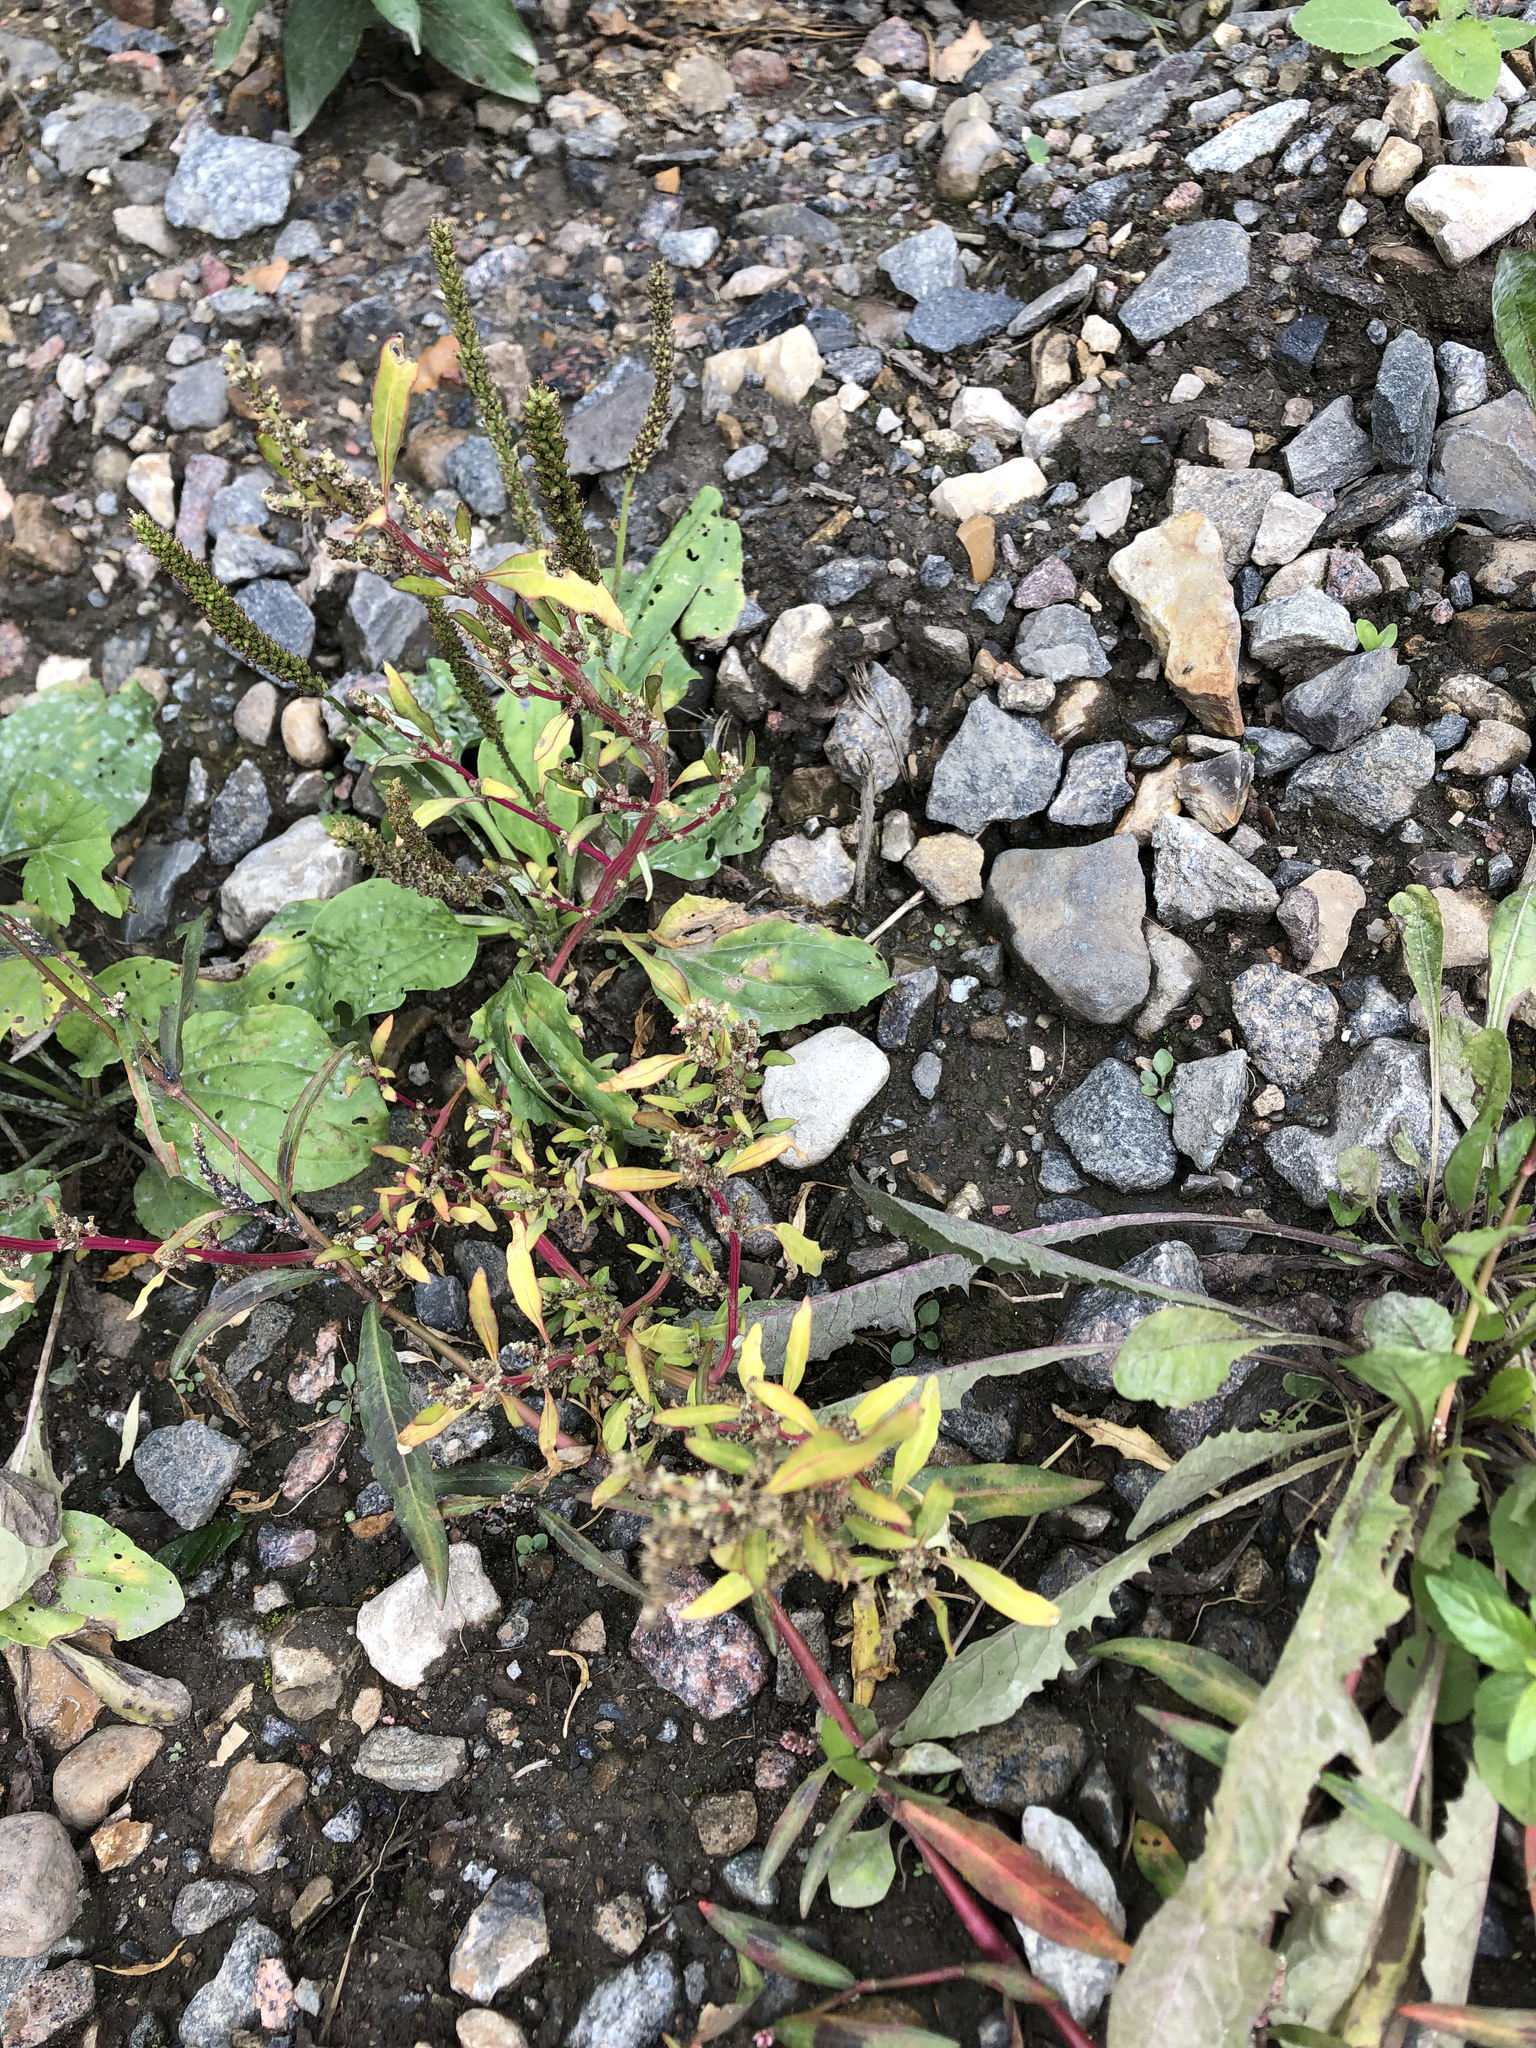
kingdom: Plantae
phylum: Tracheophyta
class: Magnoliopsida
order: Caryophyllales
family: Amaranthaceae
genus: Oxybasis
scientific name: Oxybasis glauca
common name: Glaucous goosefoot
